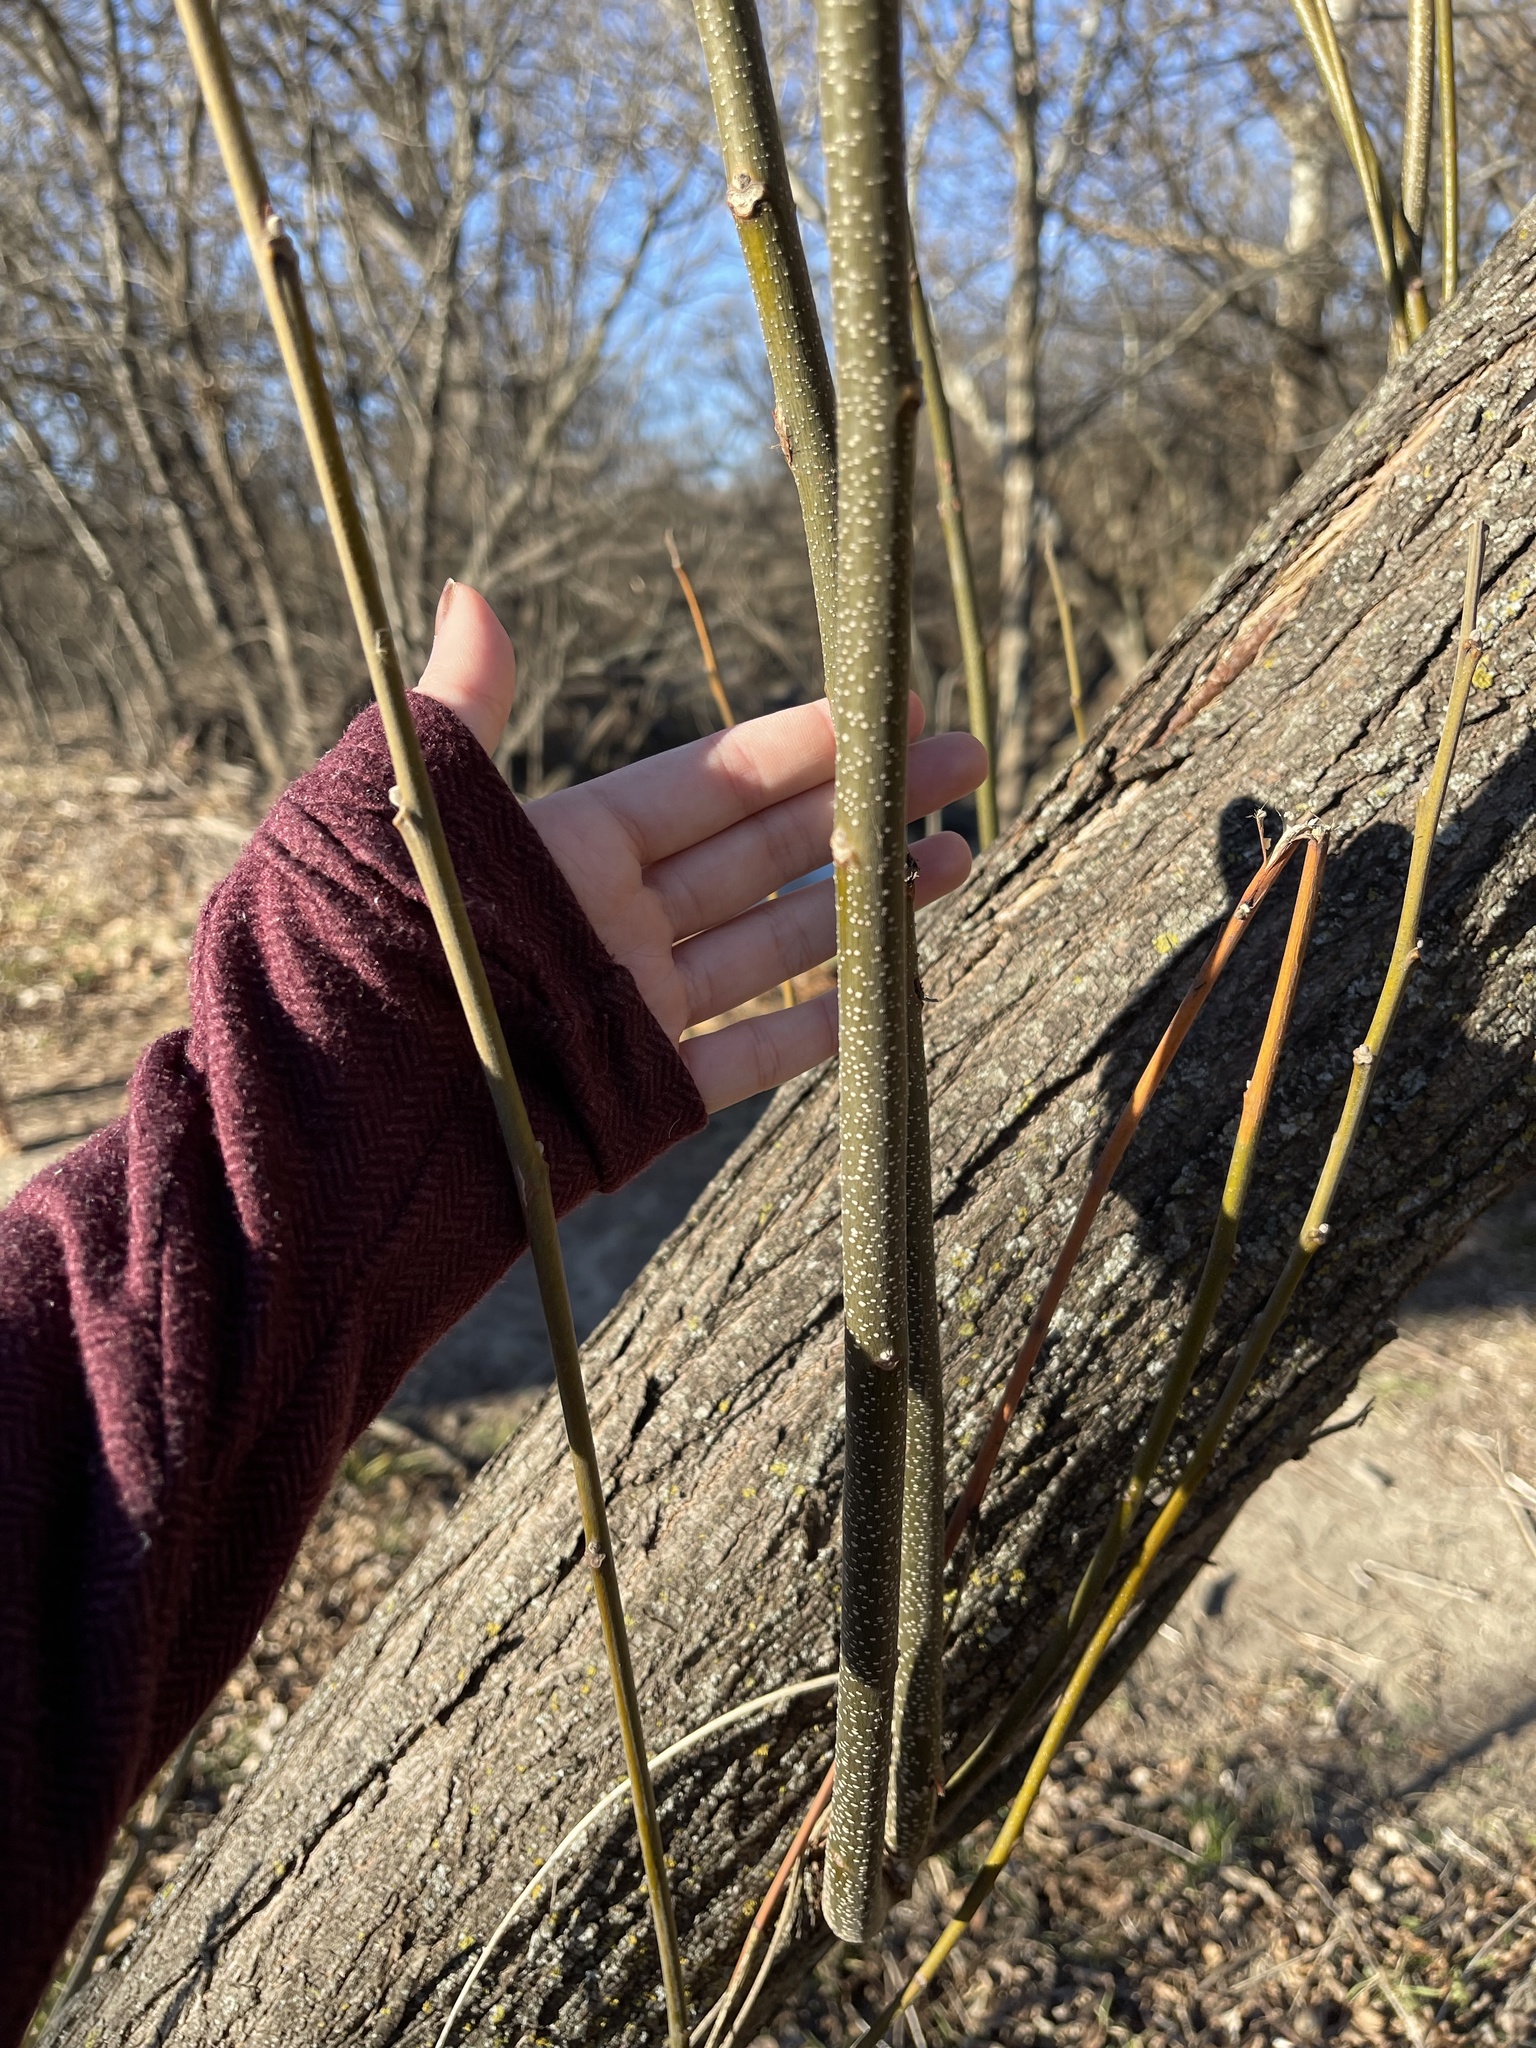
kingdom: Plantae
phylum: Tracheophyta
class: Magnoliopsida
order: Sapindales
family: Meliaceae
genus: Melia
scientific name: Melia azedarach
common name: Chinaberrytree
